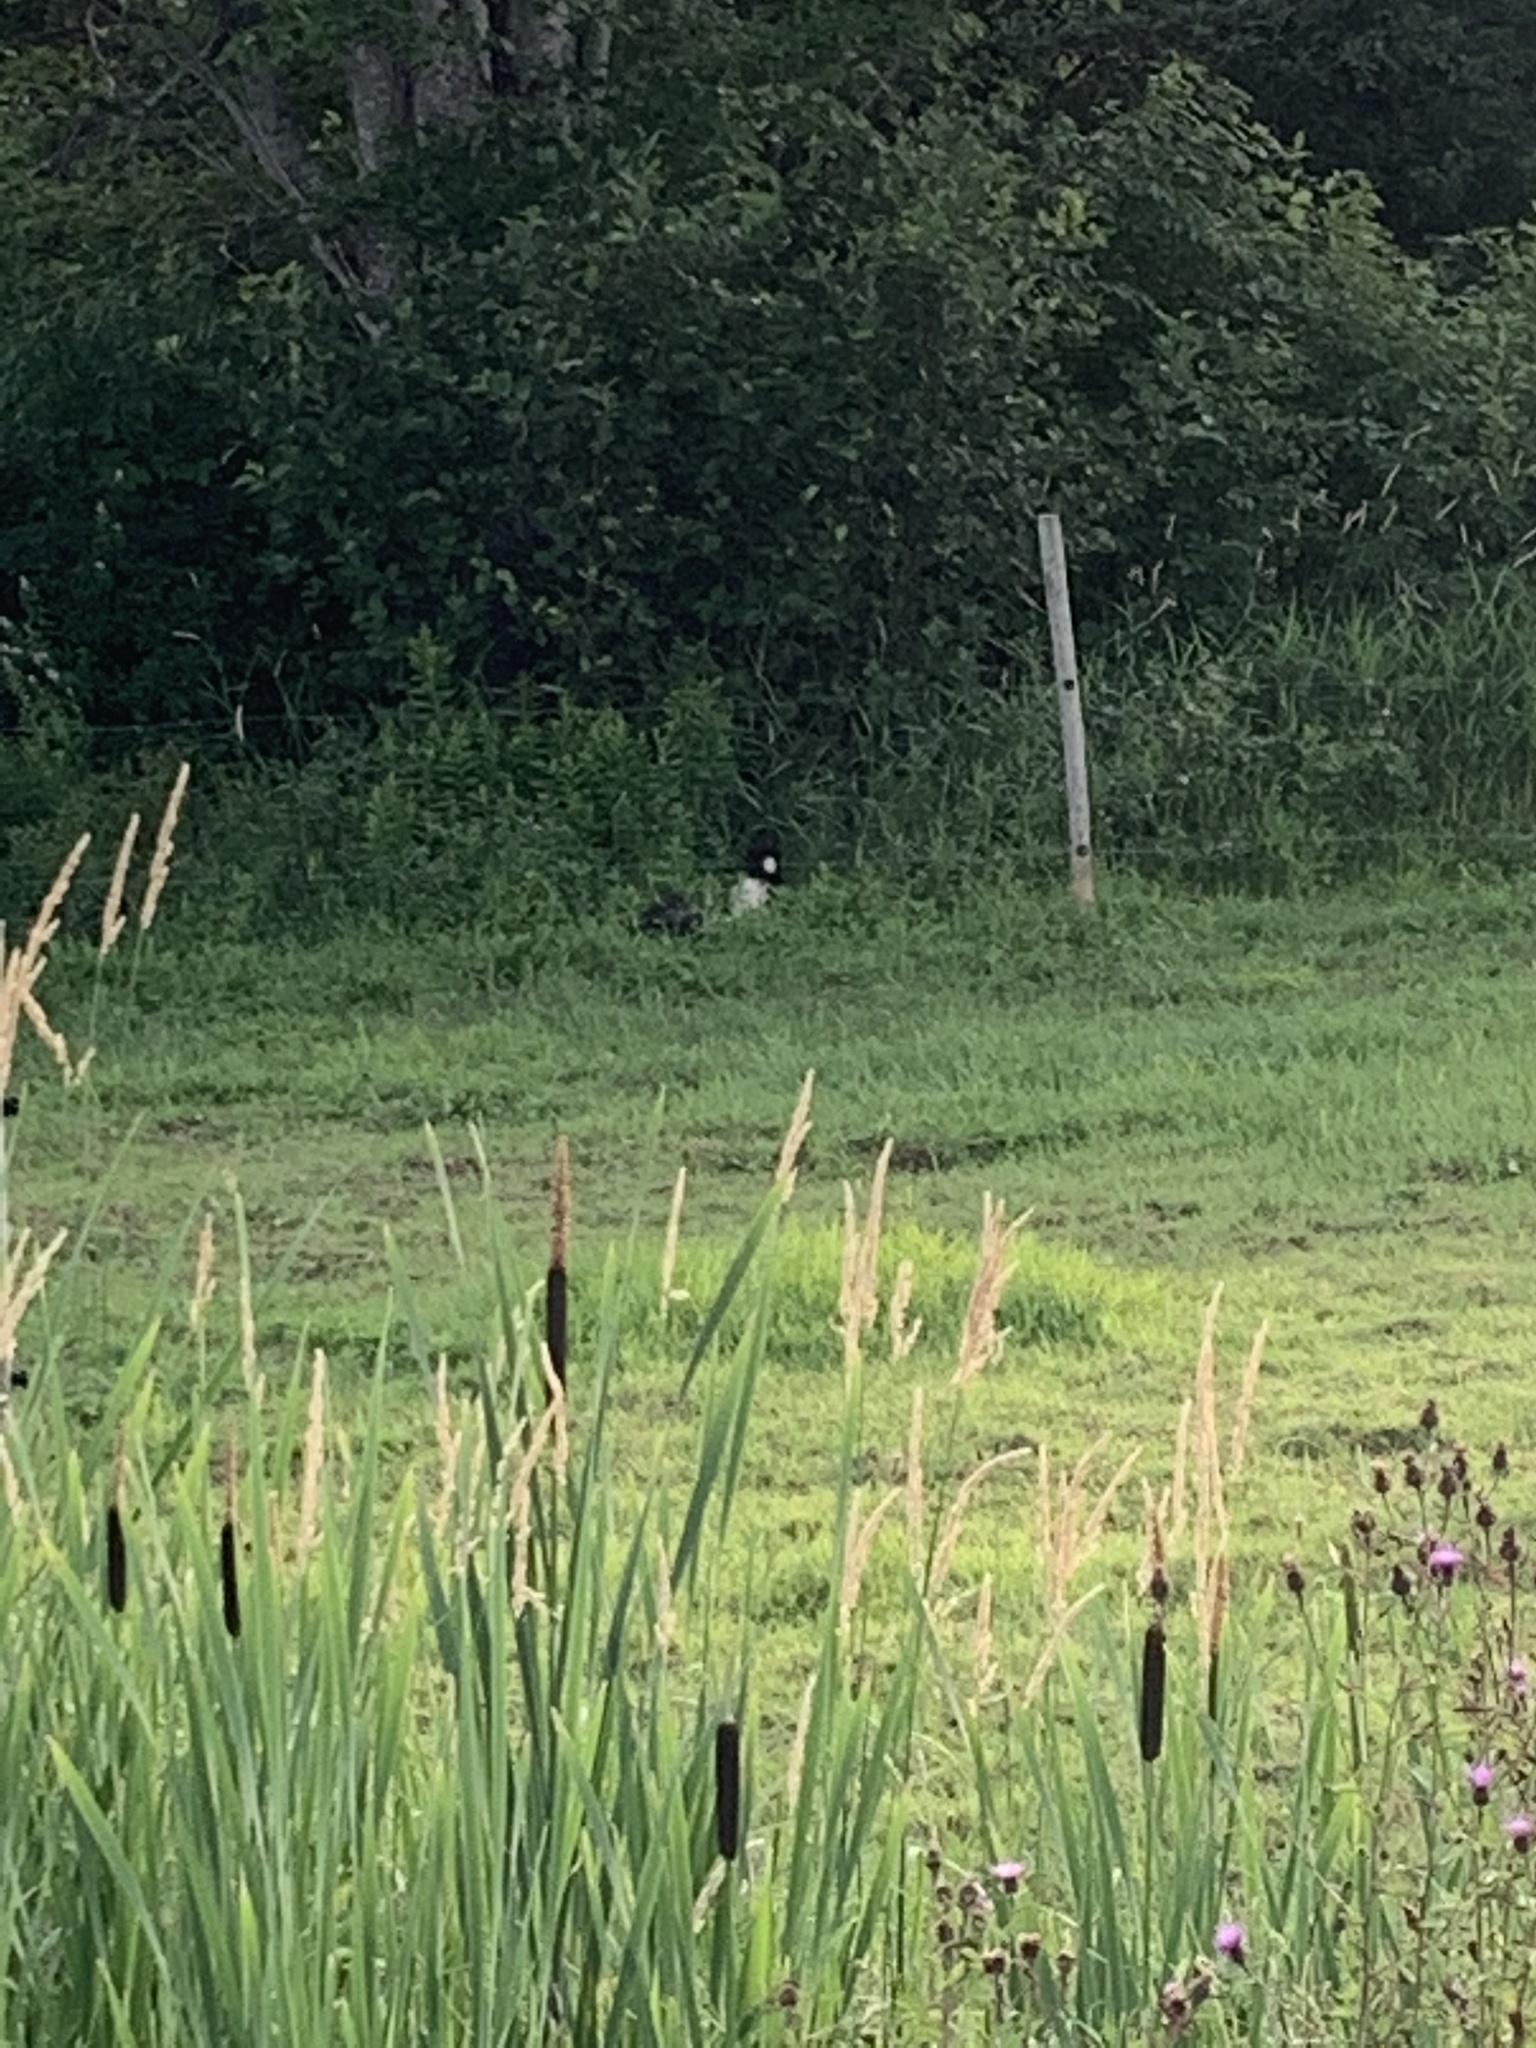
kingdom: Animalia
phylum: Chordata
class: Mammalia
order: Carnivora
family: Mephitidae
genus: Mephitis
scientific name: Mephitis mephitis
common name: Striped skunk
